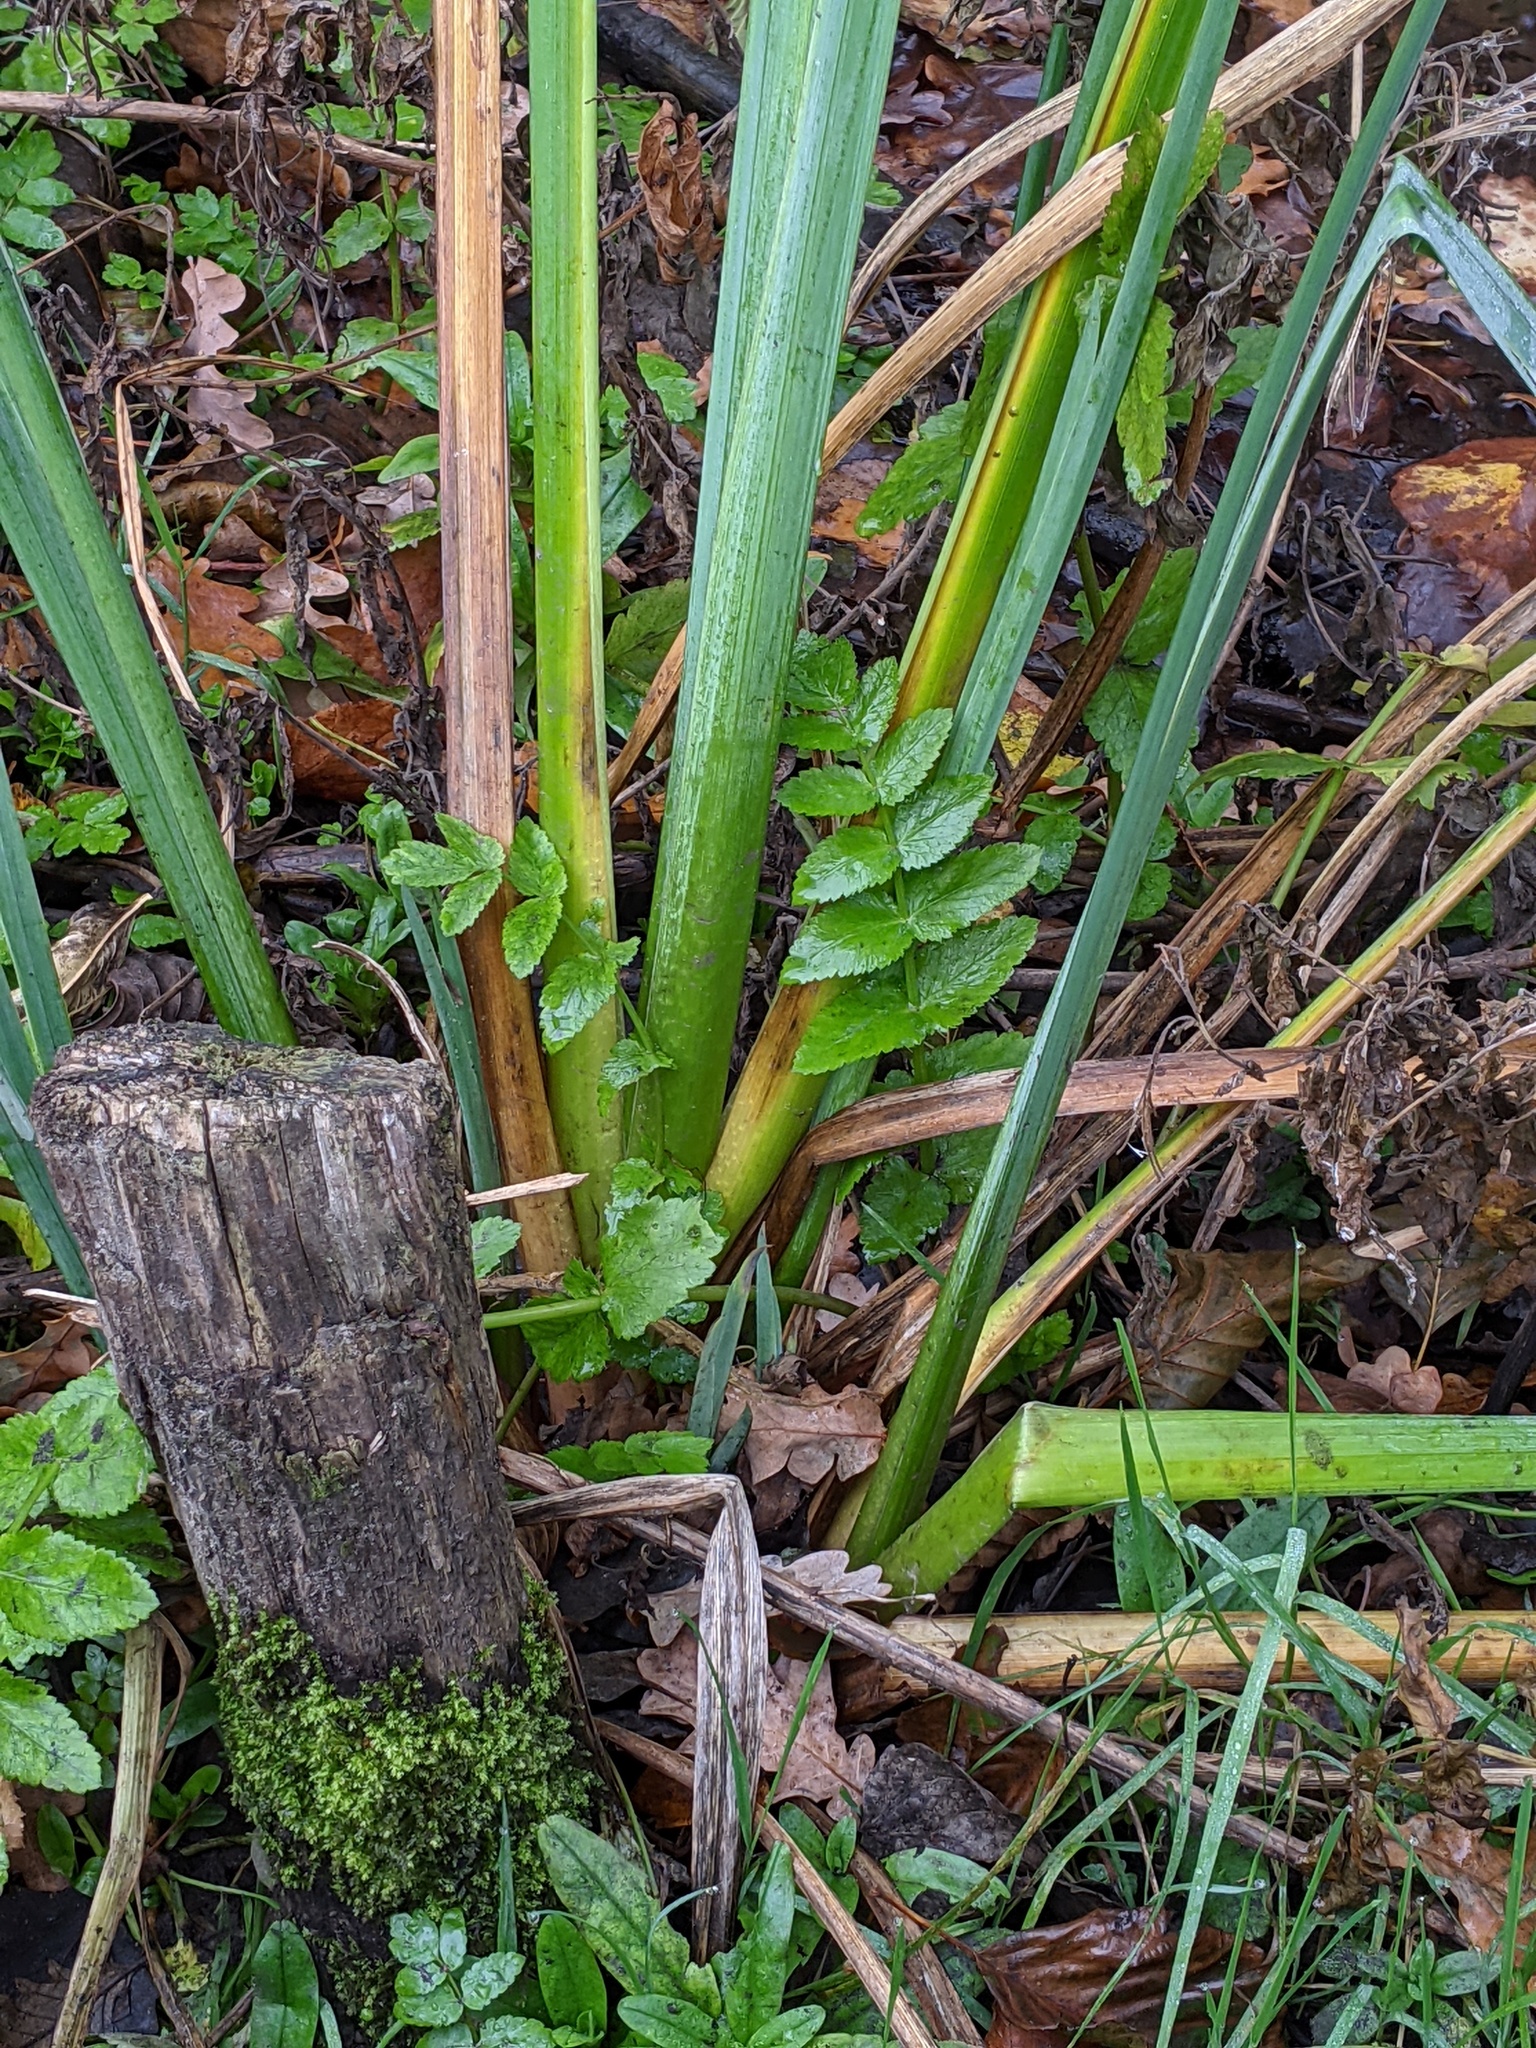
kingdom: Plantae
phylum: Tracheophyta
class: Magnoliopsida
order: Apiales
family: Apiaceae
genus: Helosciadium
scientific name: Helosciadium nodiflorum
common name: Fool's-watercress
